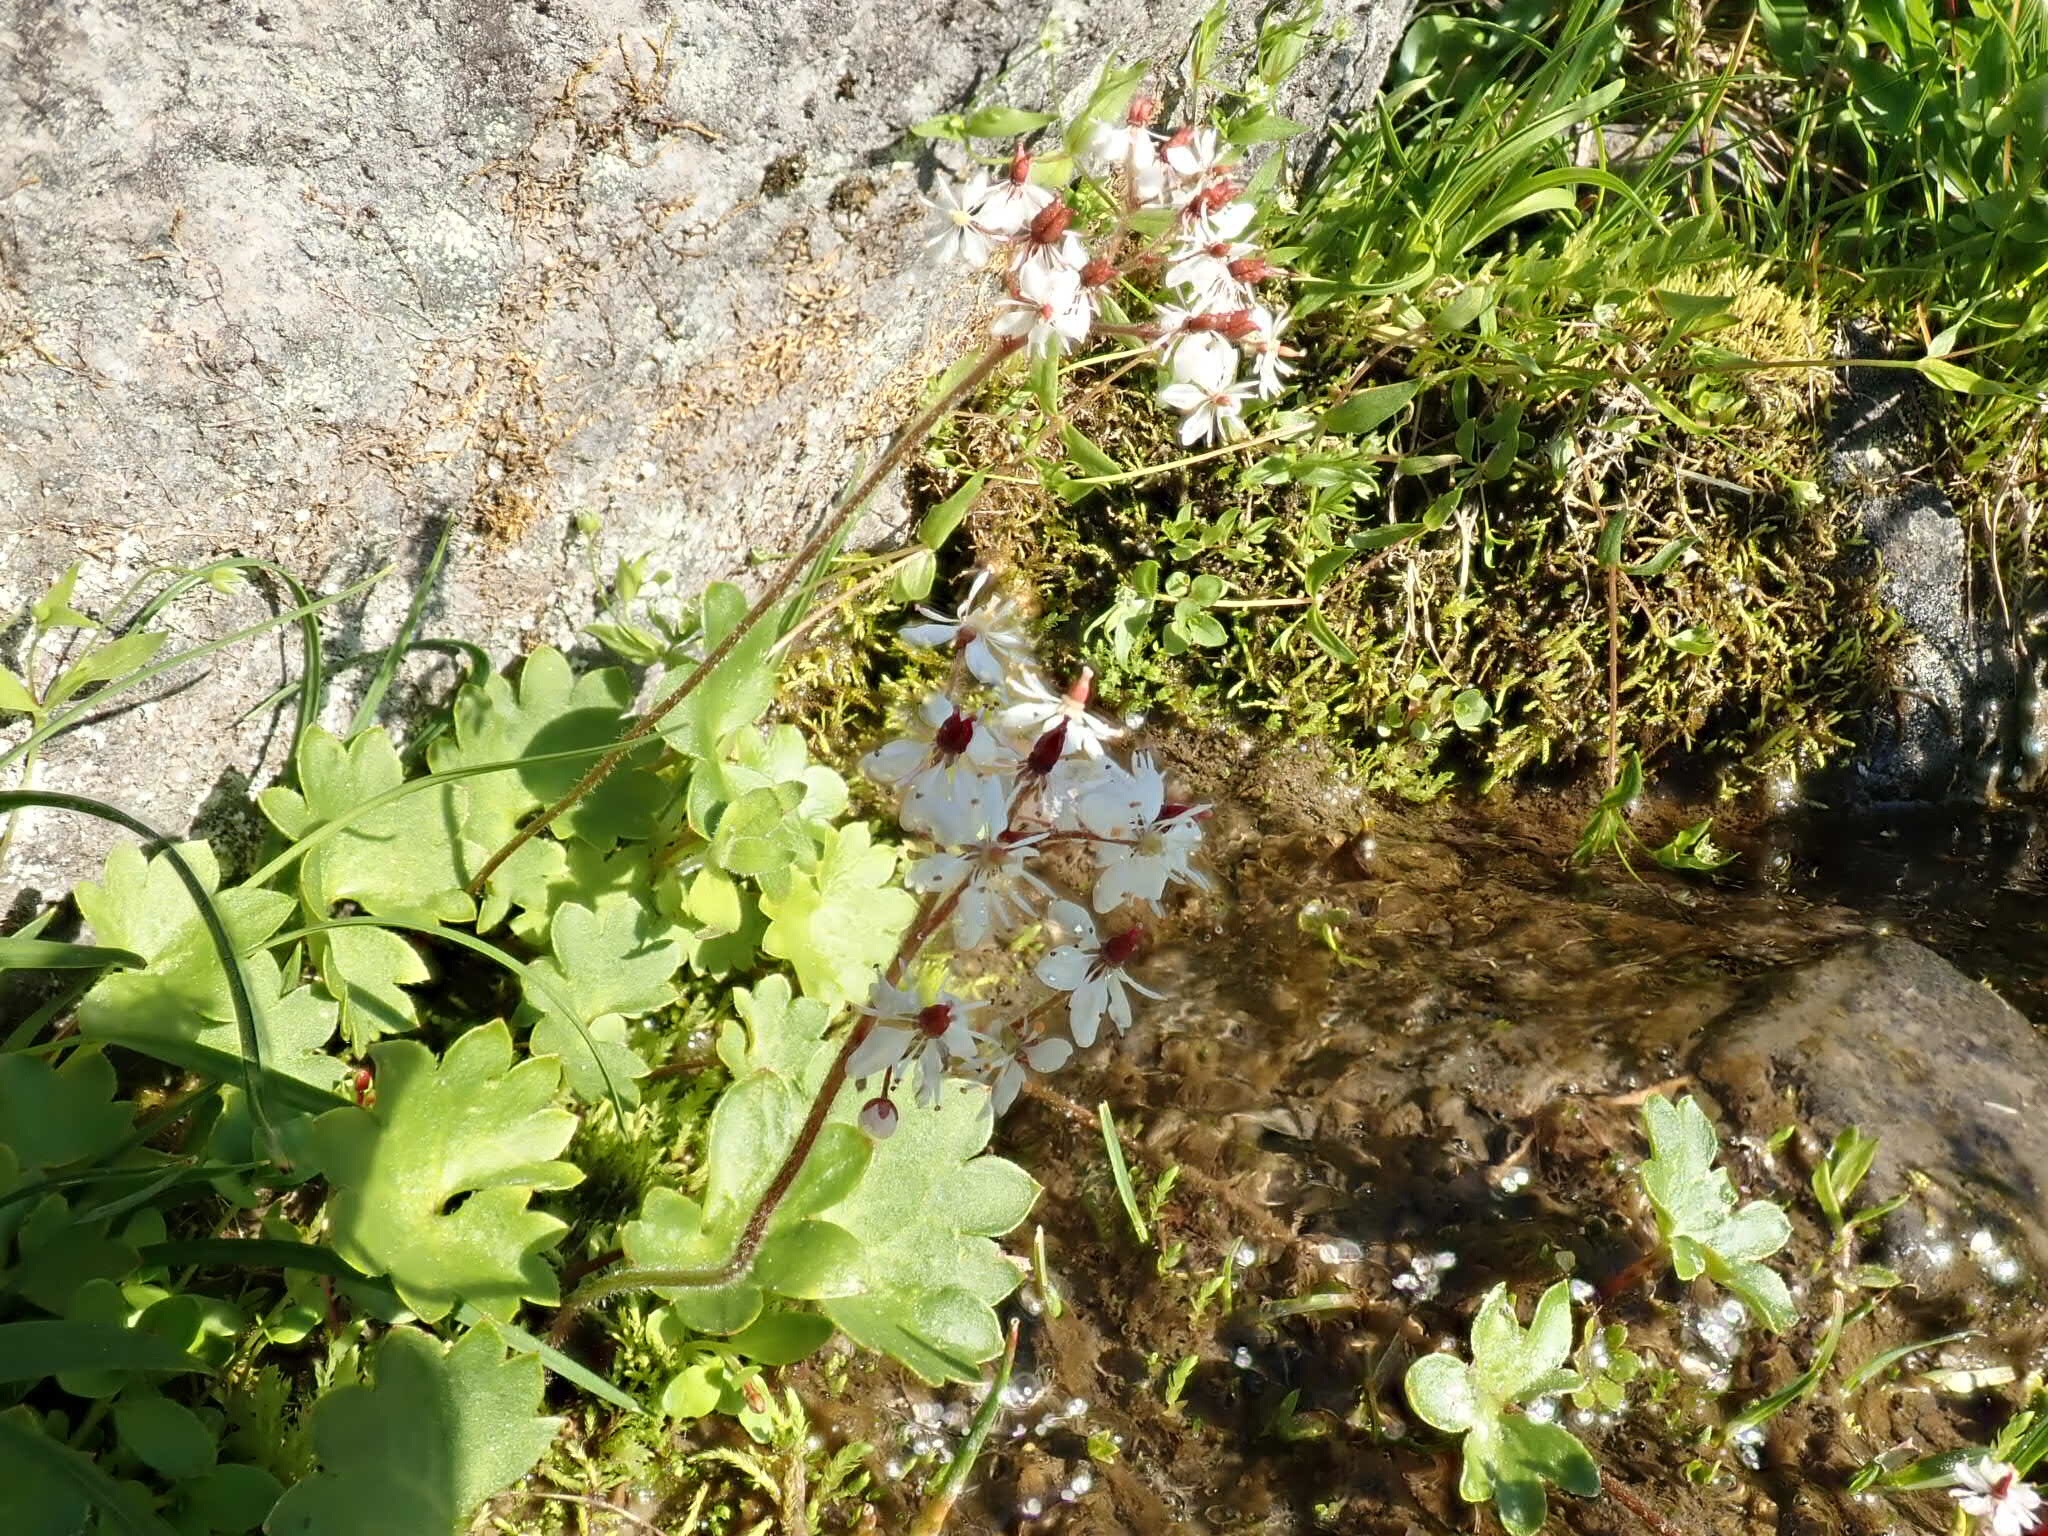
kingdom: Plantae
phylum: Tracheophyta
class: Magnoliopsida
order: Saxifragales
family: Saxifragaceae
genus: Micranthes
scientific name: Micranthes nelsoniana
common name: Nelson's saxifrage
